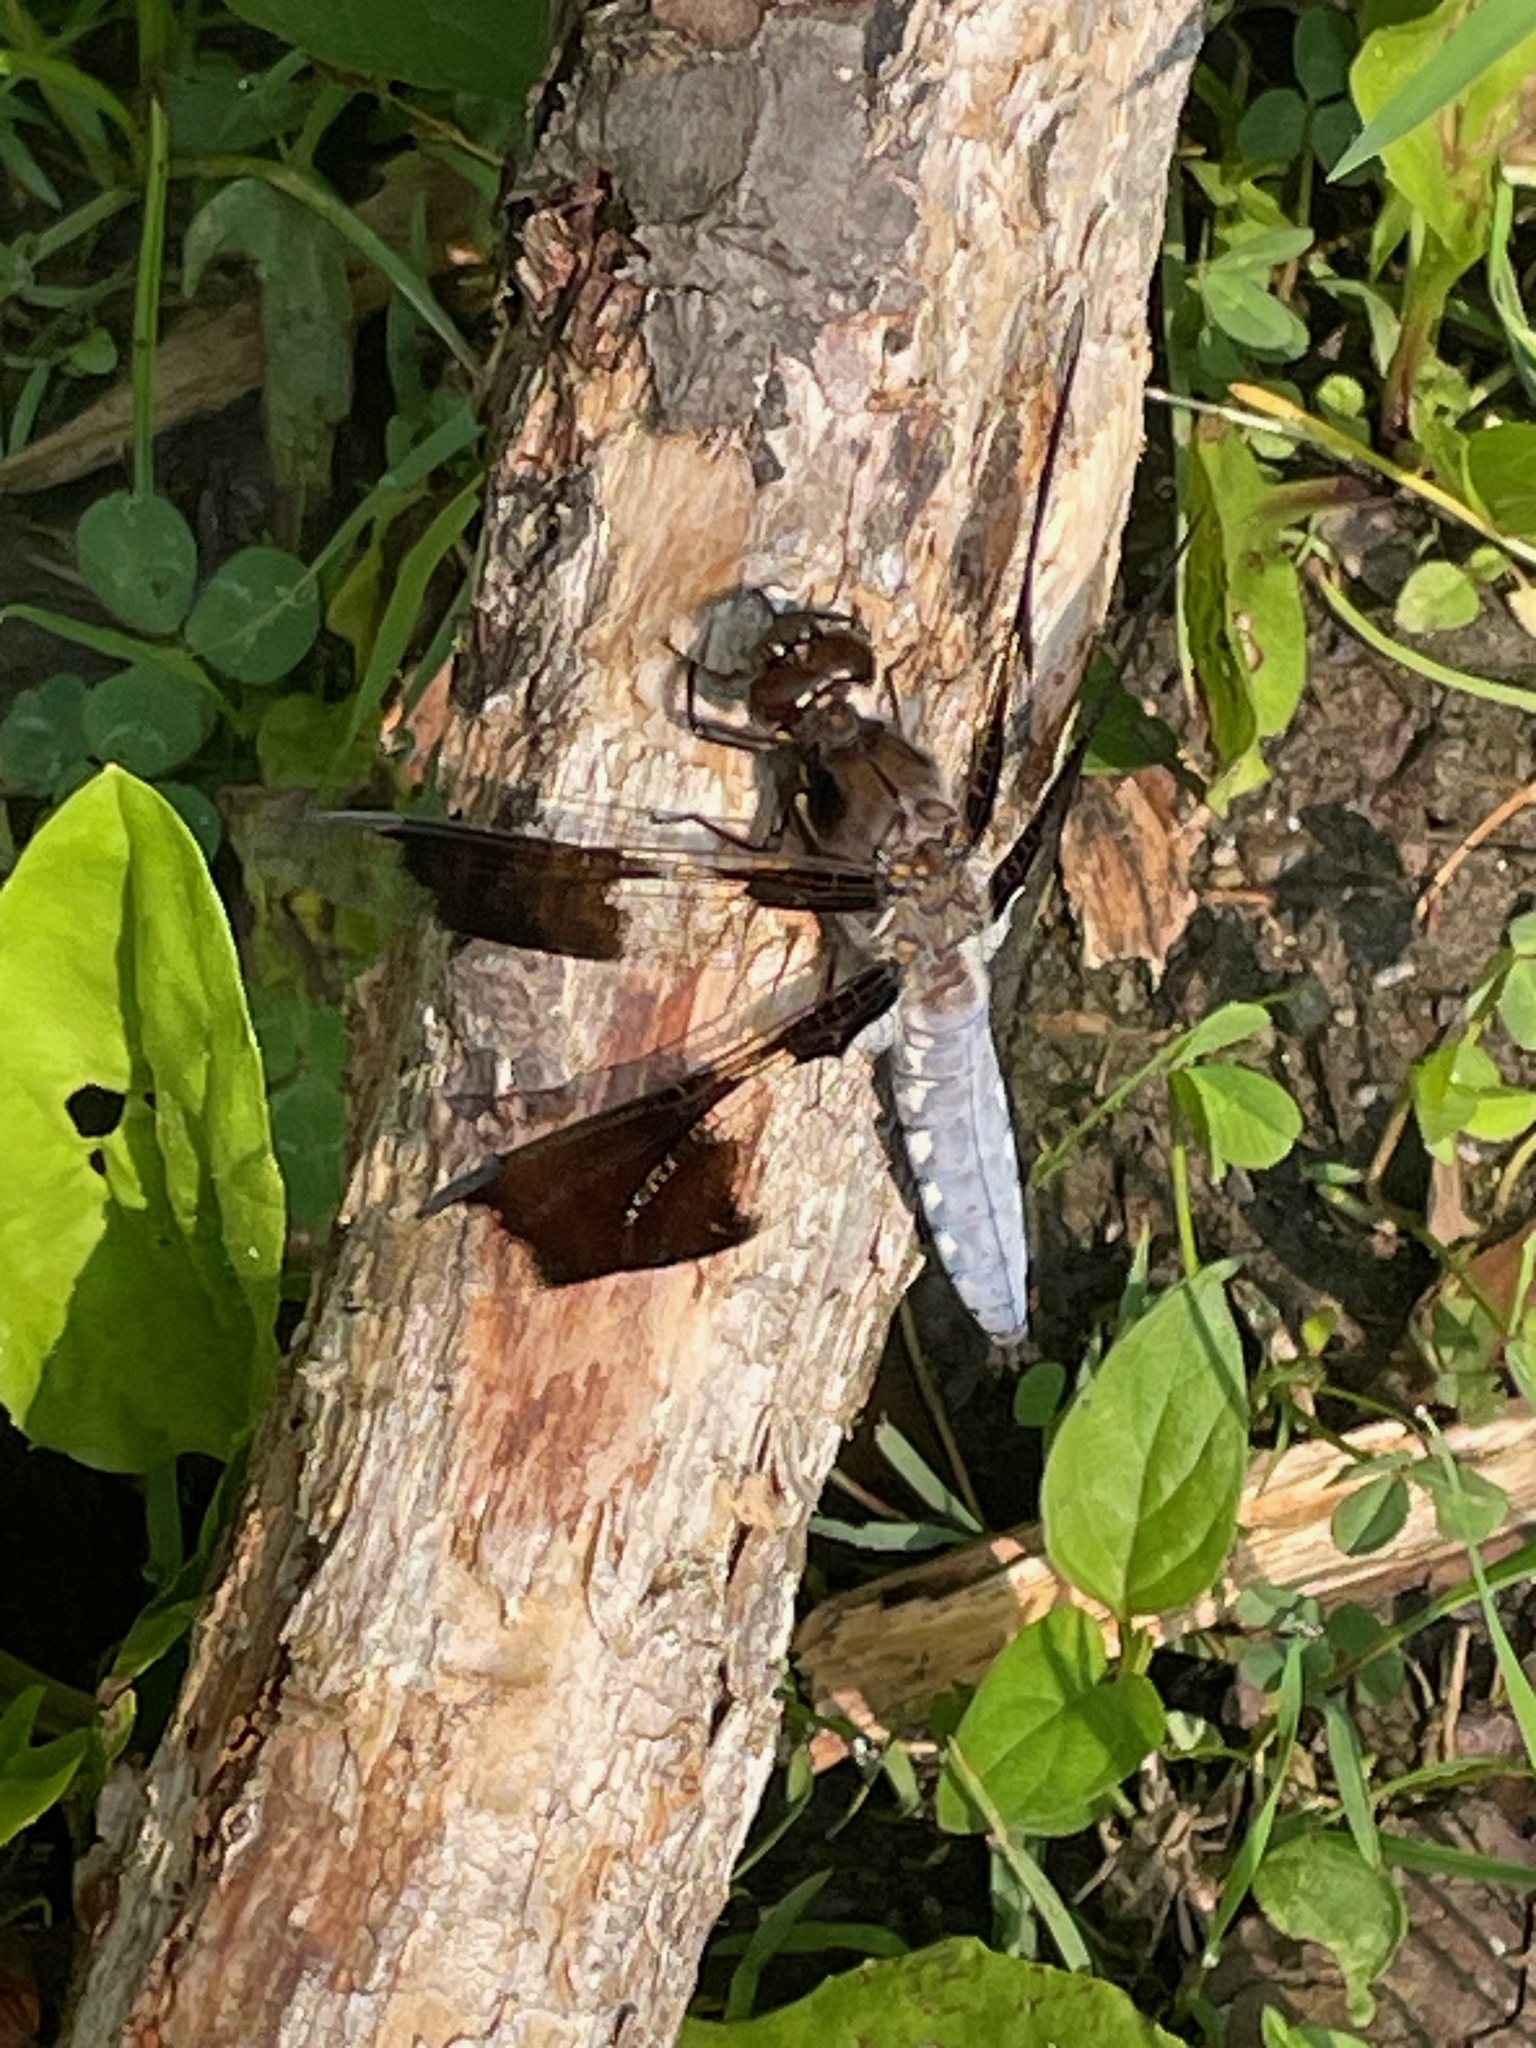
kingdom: Animalia
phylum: Arthropoda
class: Insecta
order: Odonata
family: Libellulidae
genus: Plathemis
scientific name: Plathemis lydia
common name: Common whitetail
